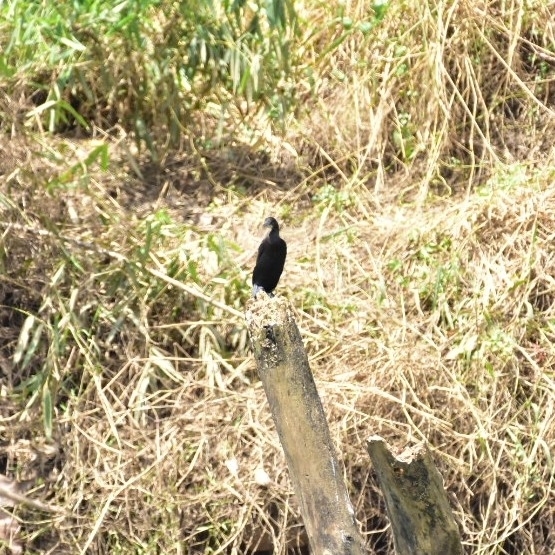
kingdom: Animalia
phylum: Chordata
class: Aves
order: Suliformes
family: Phalacrocoracidae
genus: Microcarbo
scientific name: Microcarbo niger
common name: Little cormorant
